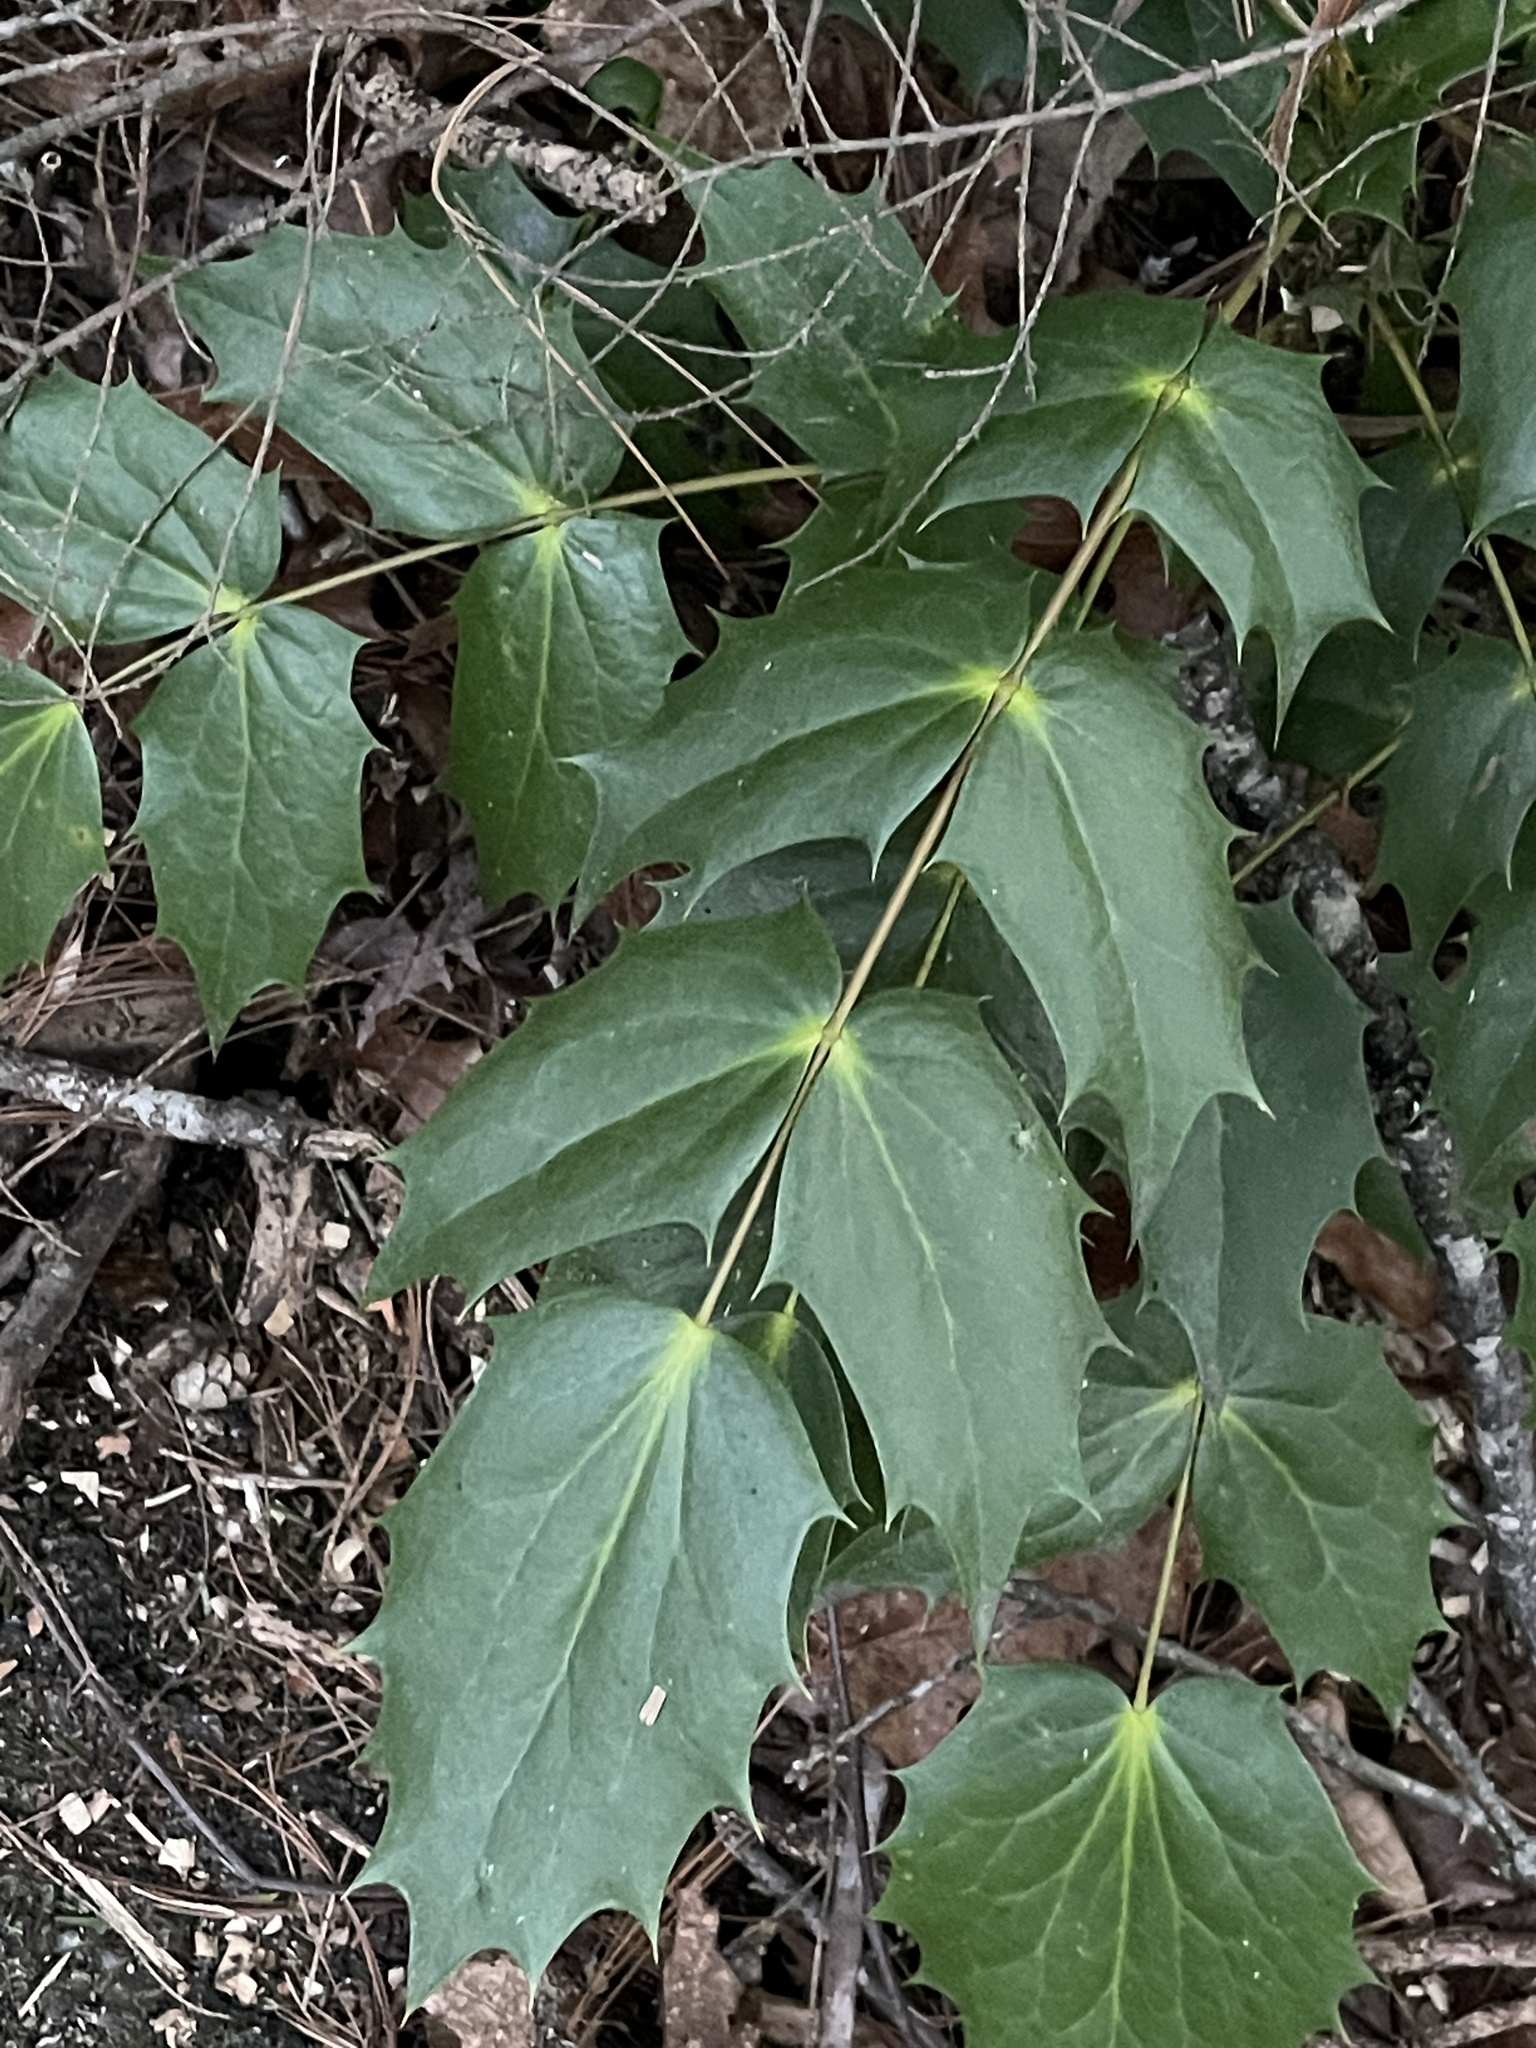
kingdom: Plantae
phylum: Tracheophyta
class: Magnoliopsida
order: Ranunculales
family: Berberidaceae
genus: Mahonia
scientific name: Mahonia bealei
